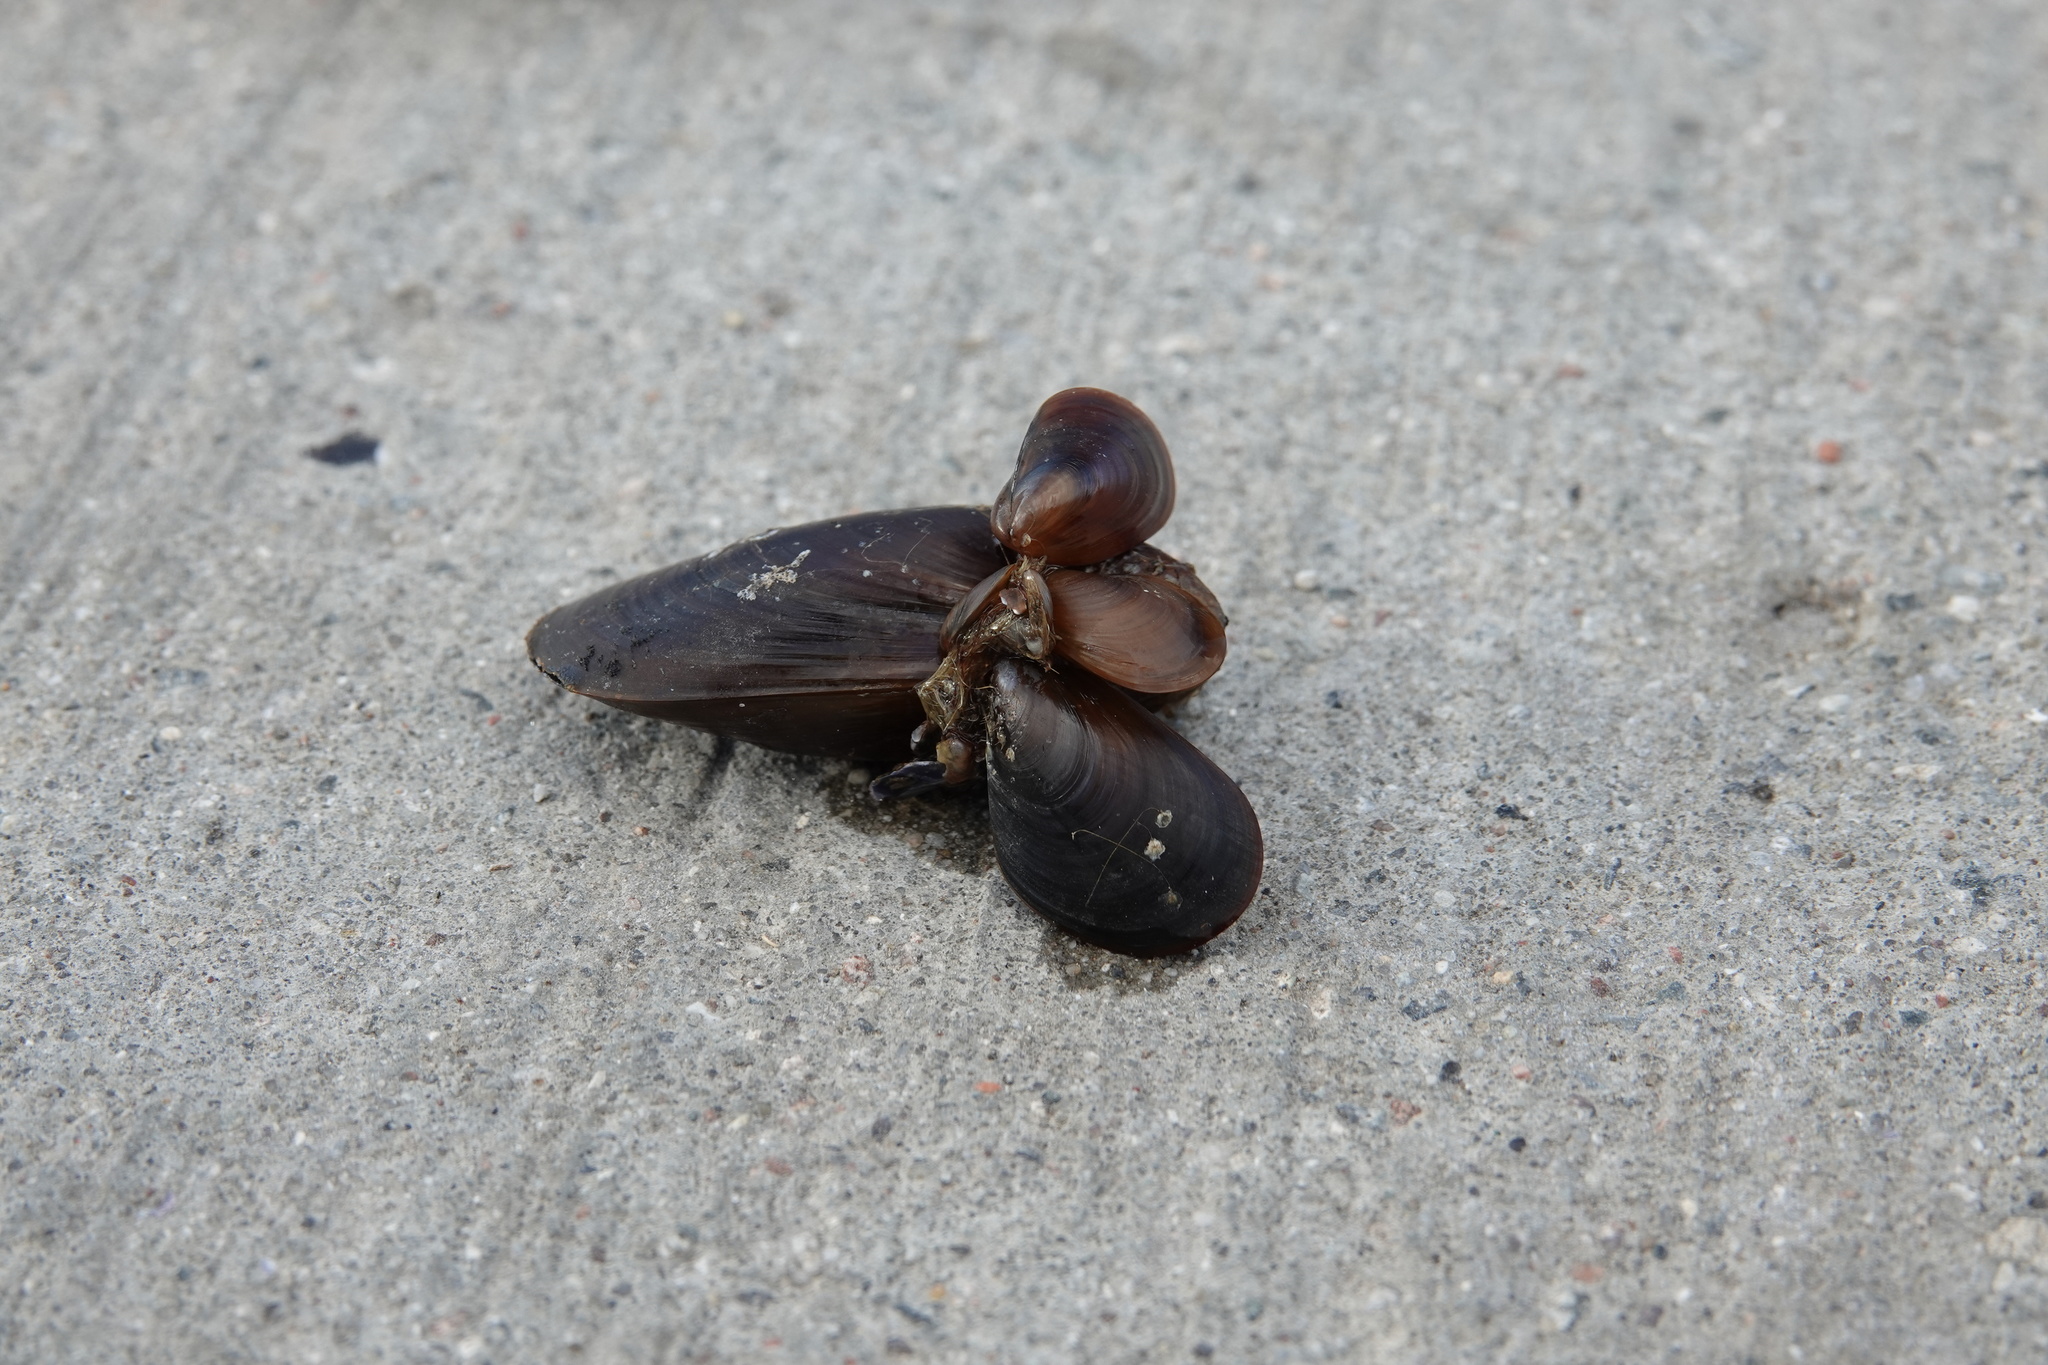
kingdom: Animalia
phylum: Mollusca
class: Bivalvia
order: Mytilida
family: Mytilidae
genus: Mytilus
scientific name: Mytilus edulis
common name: Blue mussel
